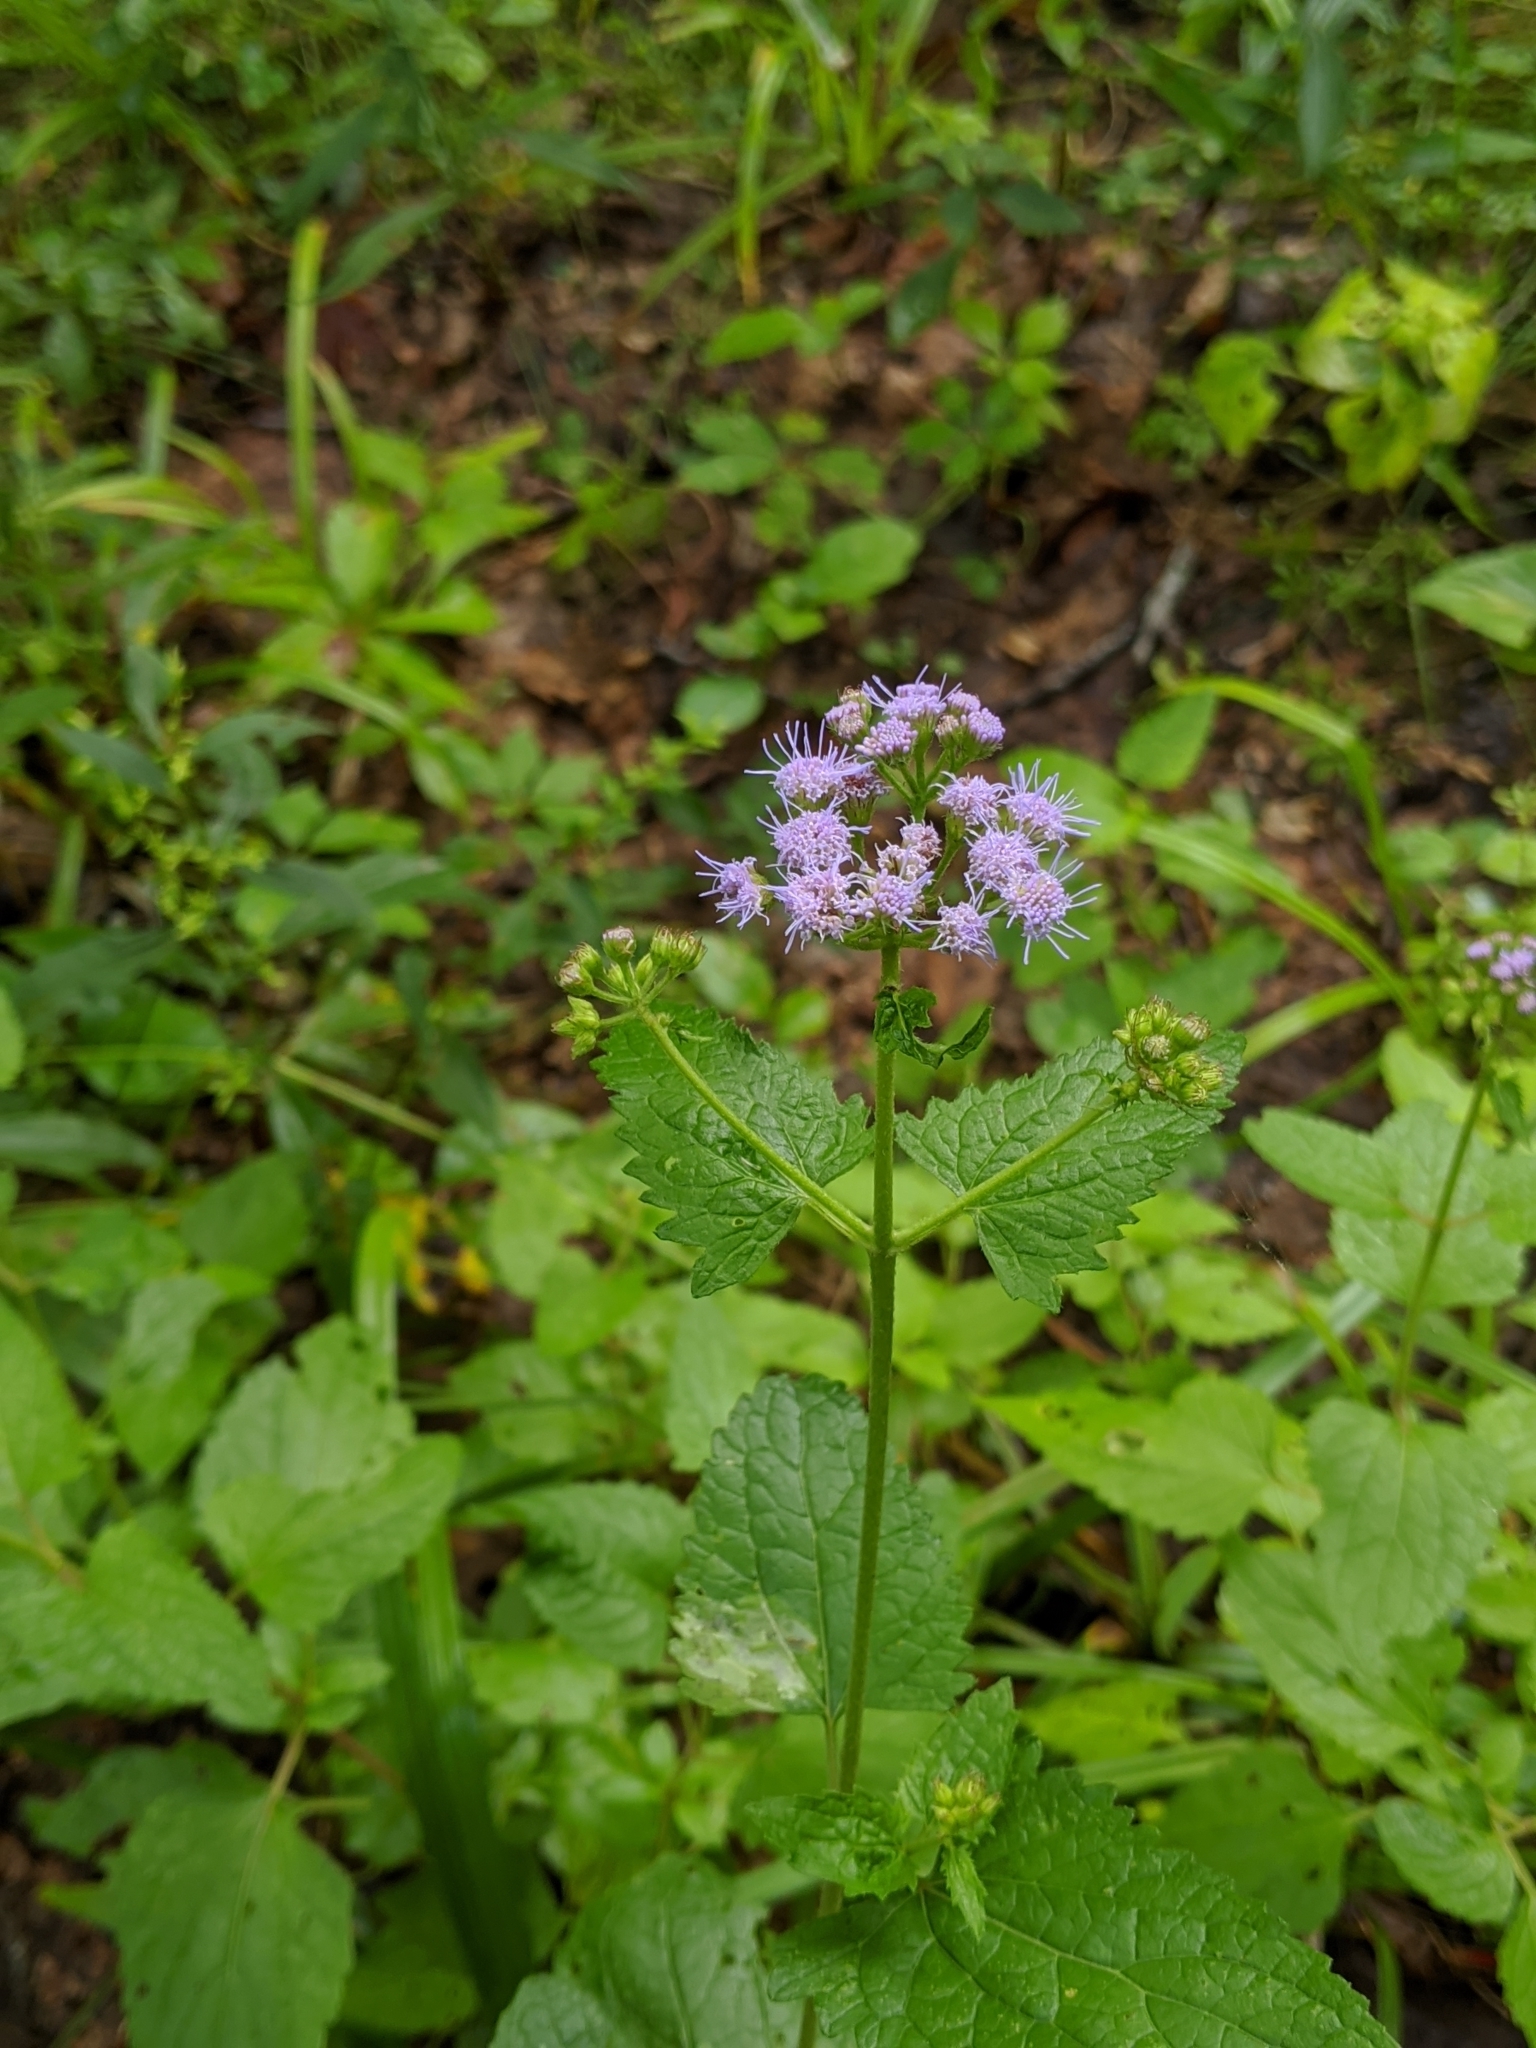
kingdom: Plantae
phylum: Tracheophyta
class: Magnoliopsida
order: Asterales
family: Asteraceae
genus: Conoclinium
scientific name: Conoclinium coelestinum
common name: Blue mistflower
